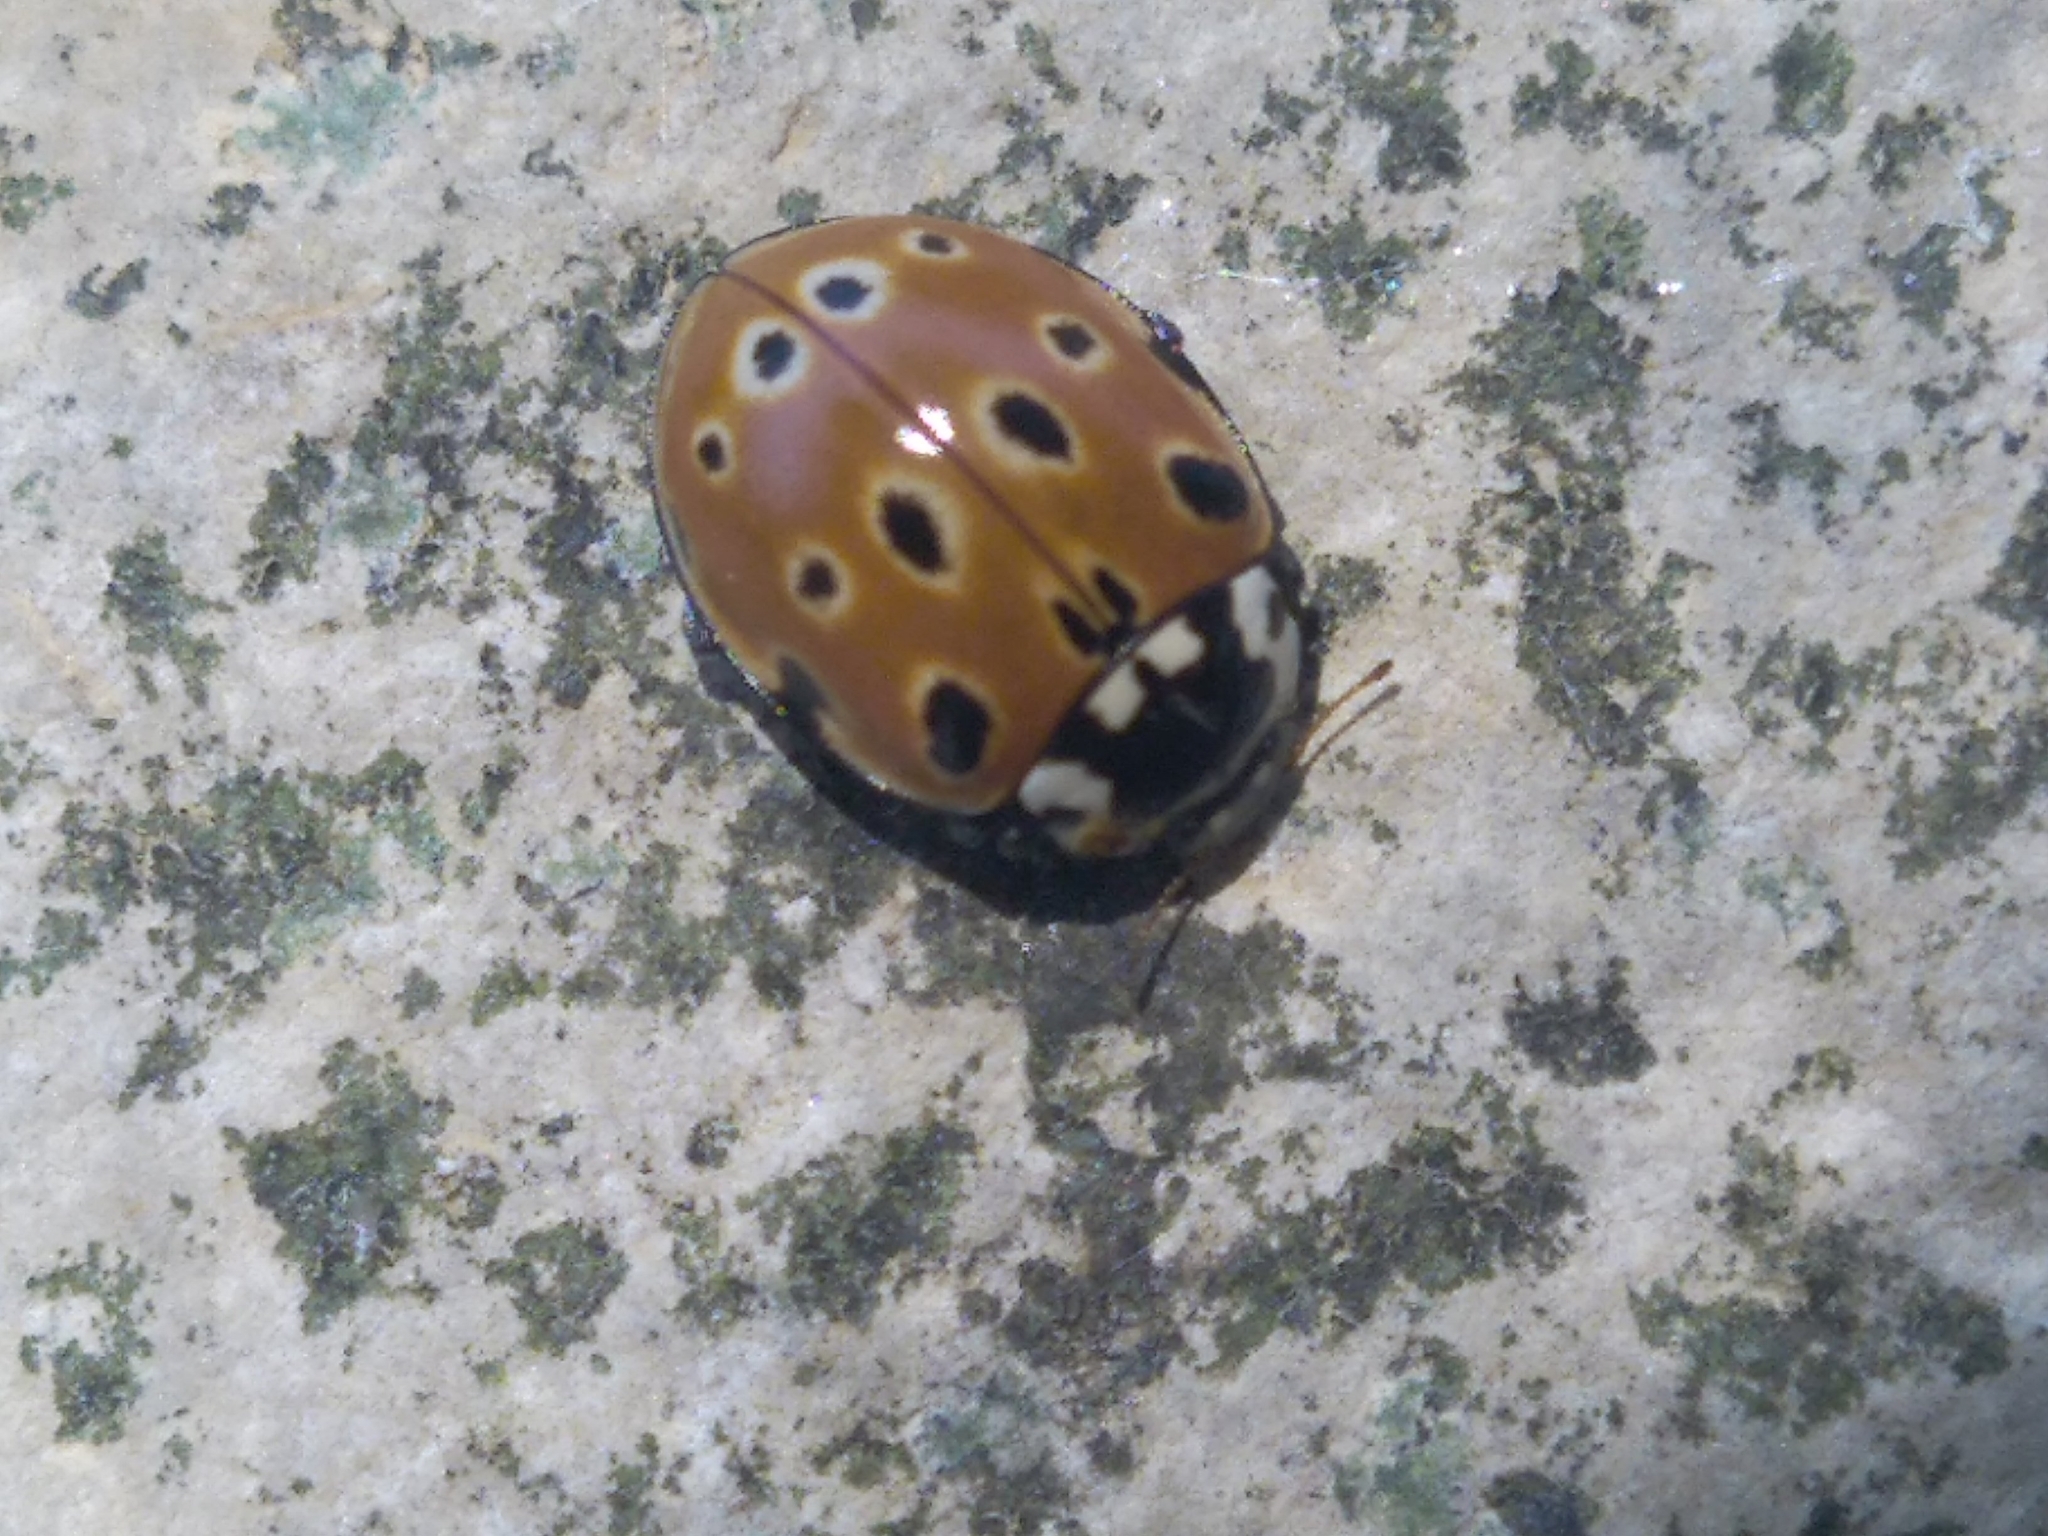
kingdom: Animalia
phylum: Arthropoda
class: Insecta
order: Coleoptera
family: Coccinellidae
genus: Anatis
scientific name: Anatis ocellata
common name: Eyed ladybird
